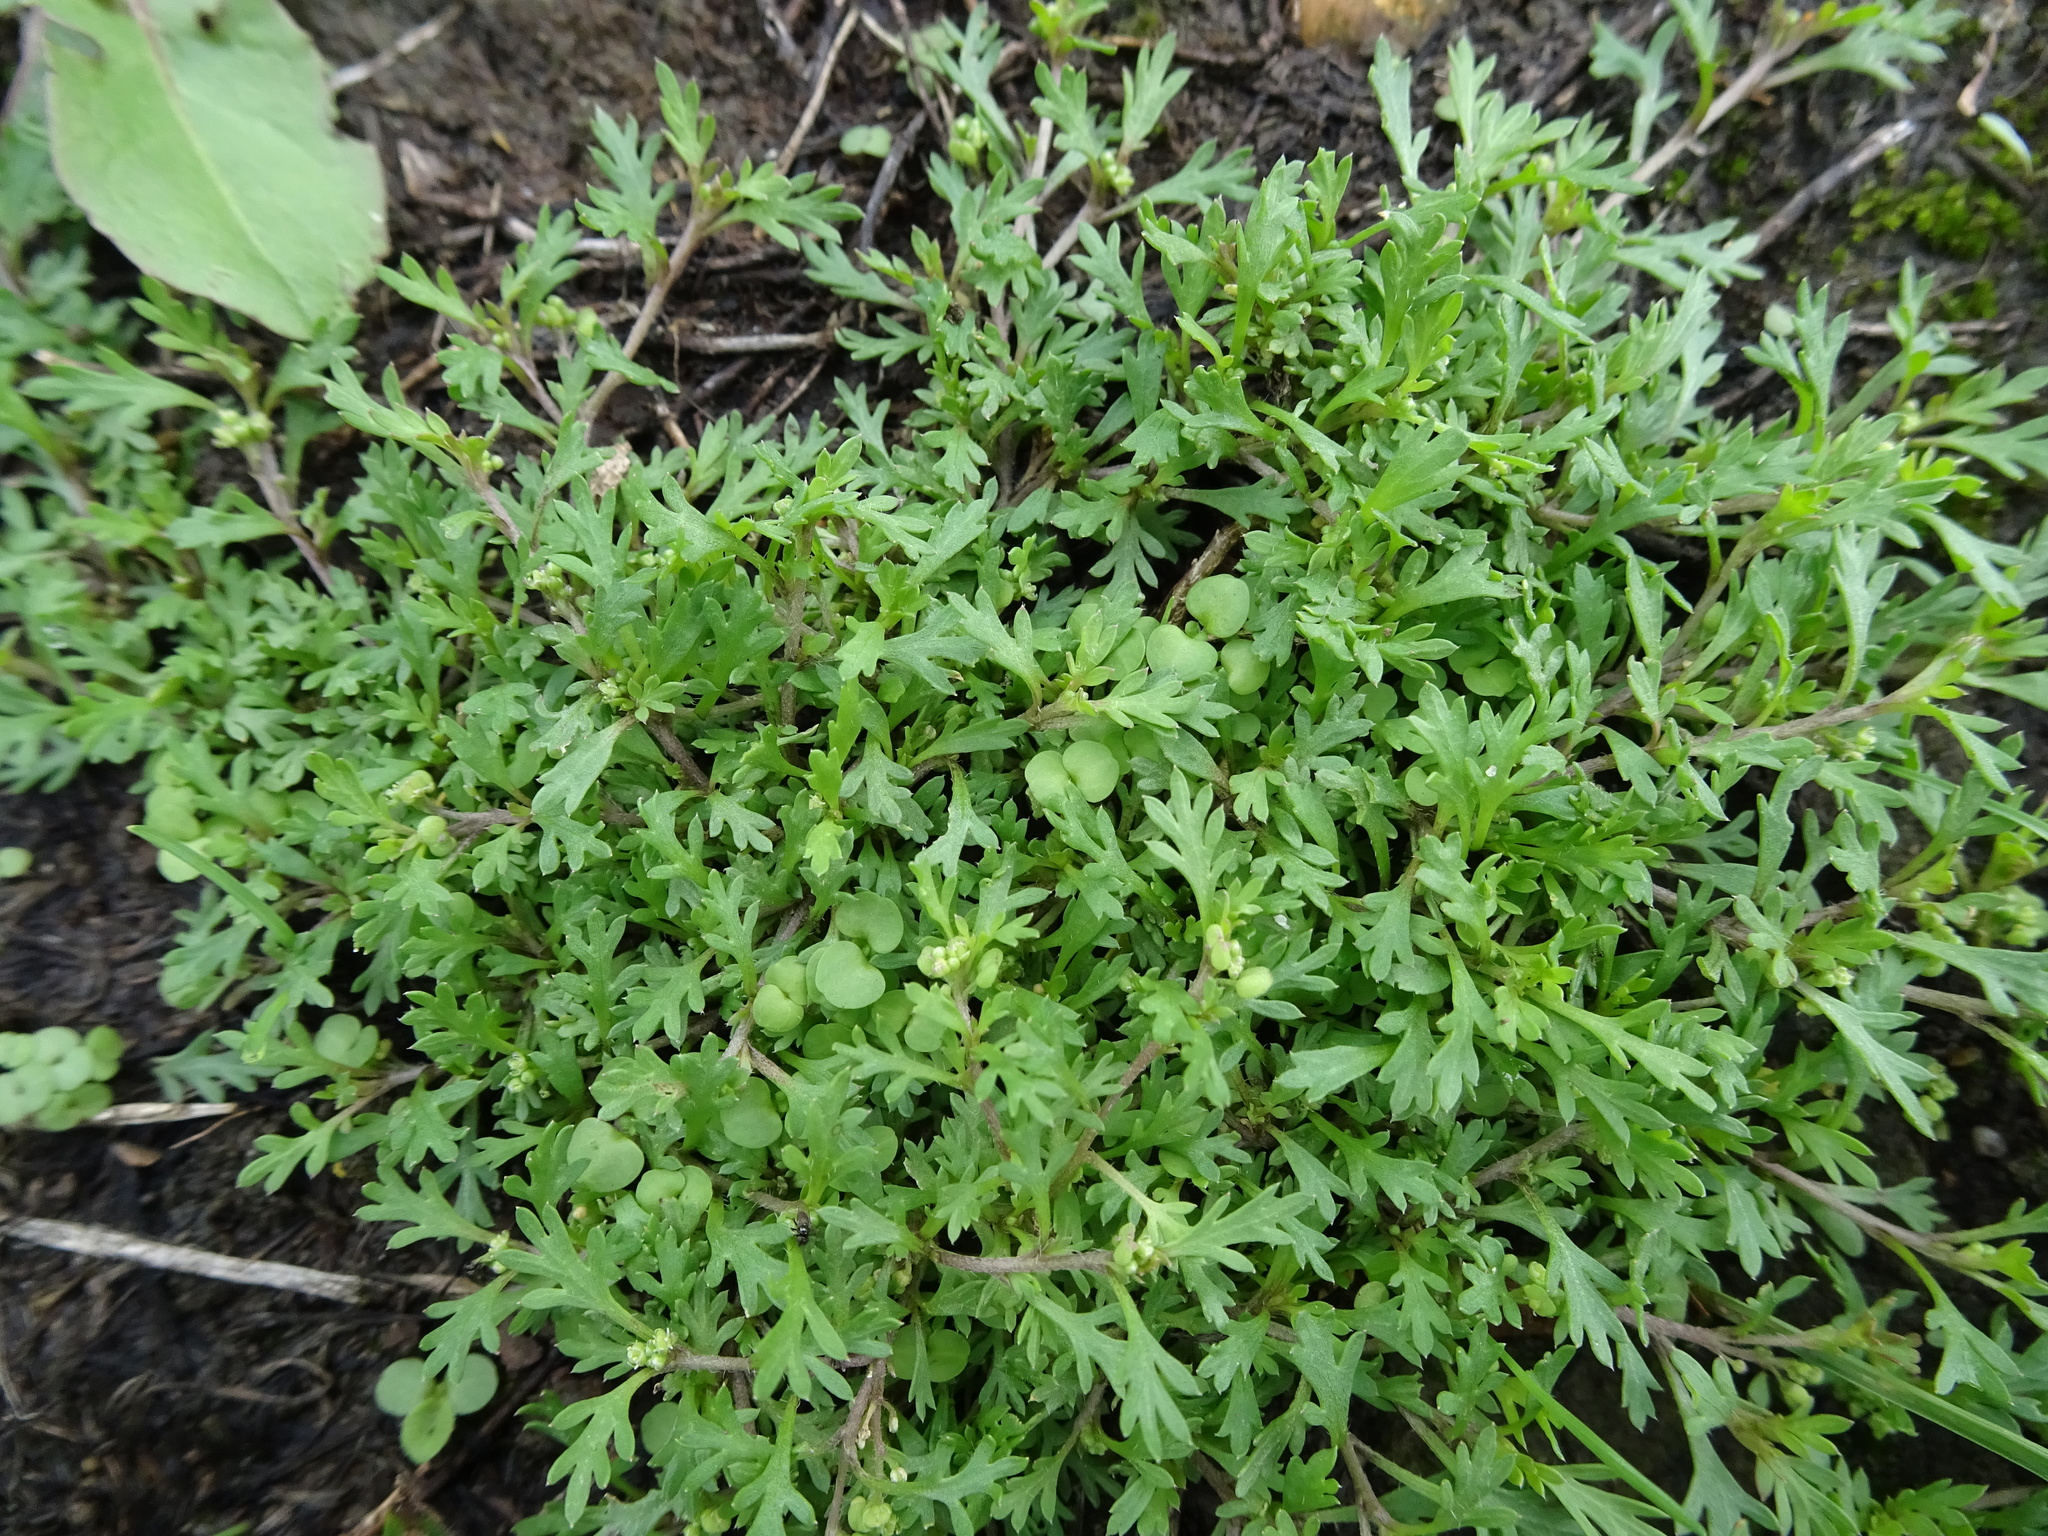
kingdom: Plantae
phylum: Tracheophyta
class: Magnoliopsida
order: Brassicales
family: Brassicaceae
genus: Lepidium
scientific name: Lepidium didymum
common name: Lesser swinecress
